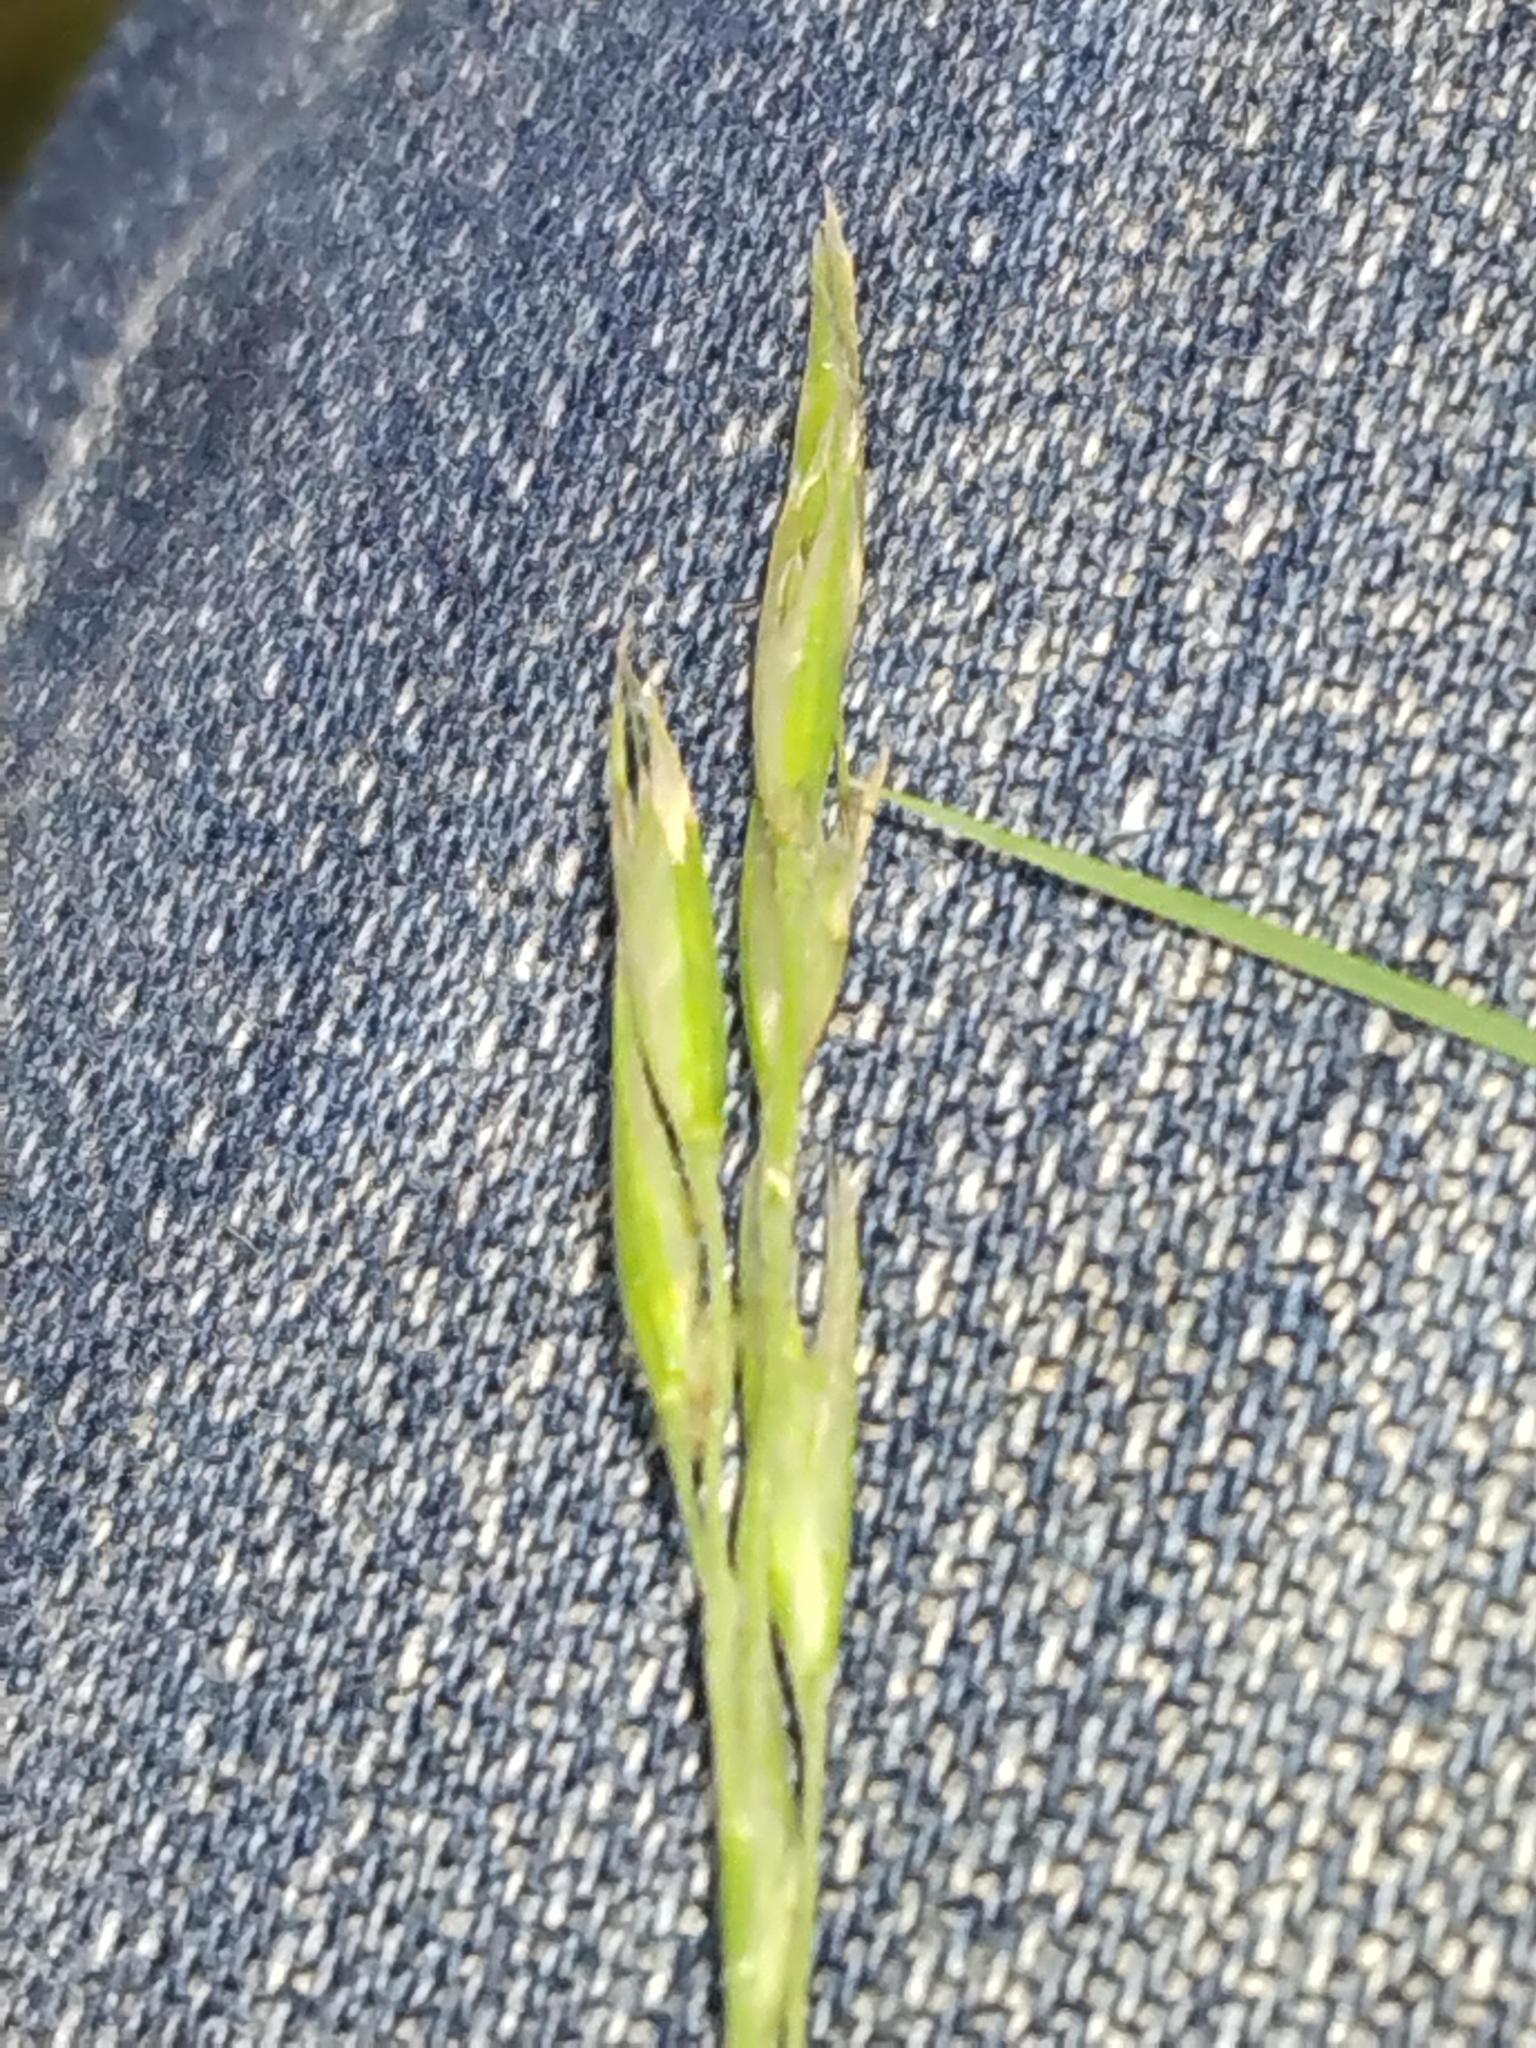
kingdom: Plantae
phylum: Tracheophyta
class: Liliopsida
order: Poales
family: Poaceae
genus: Danthonia
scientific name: Danthonia spicata
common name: Common wild oatgrass
